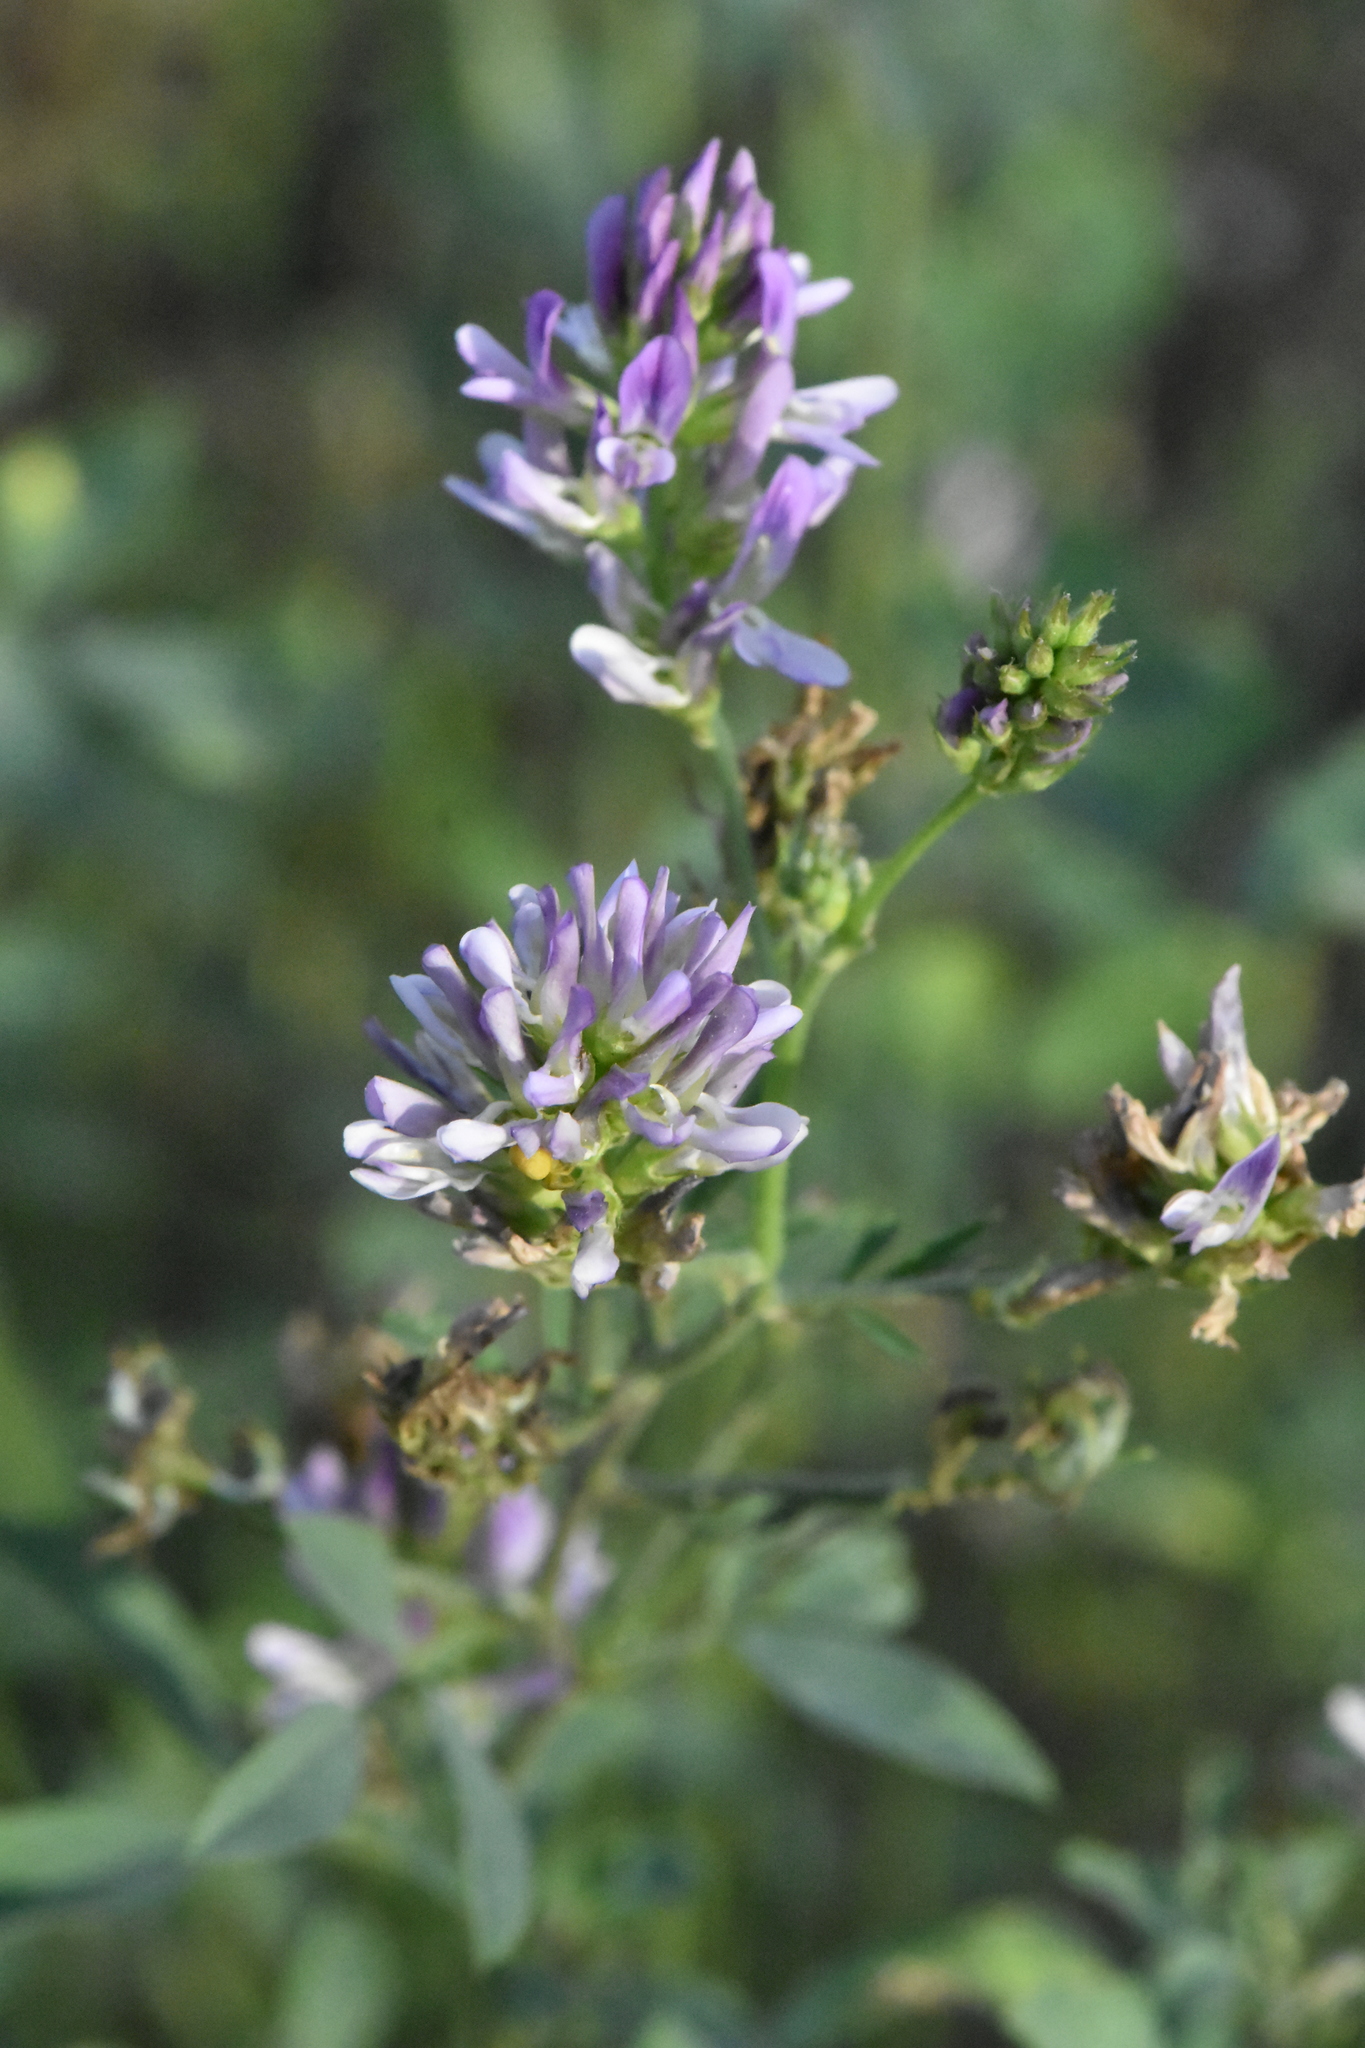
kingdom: Plantae
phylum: Tracheophyta
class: Magnoliopsida
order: Fabales
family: Fabaceae
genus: Medicago
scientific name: Medicago varia
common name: Sand lucerne
